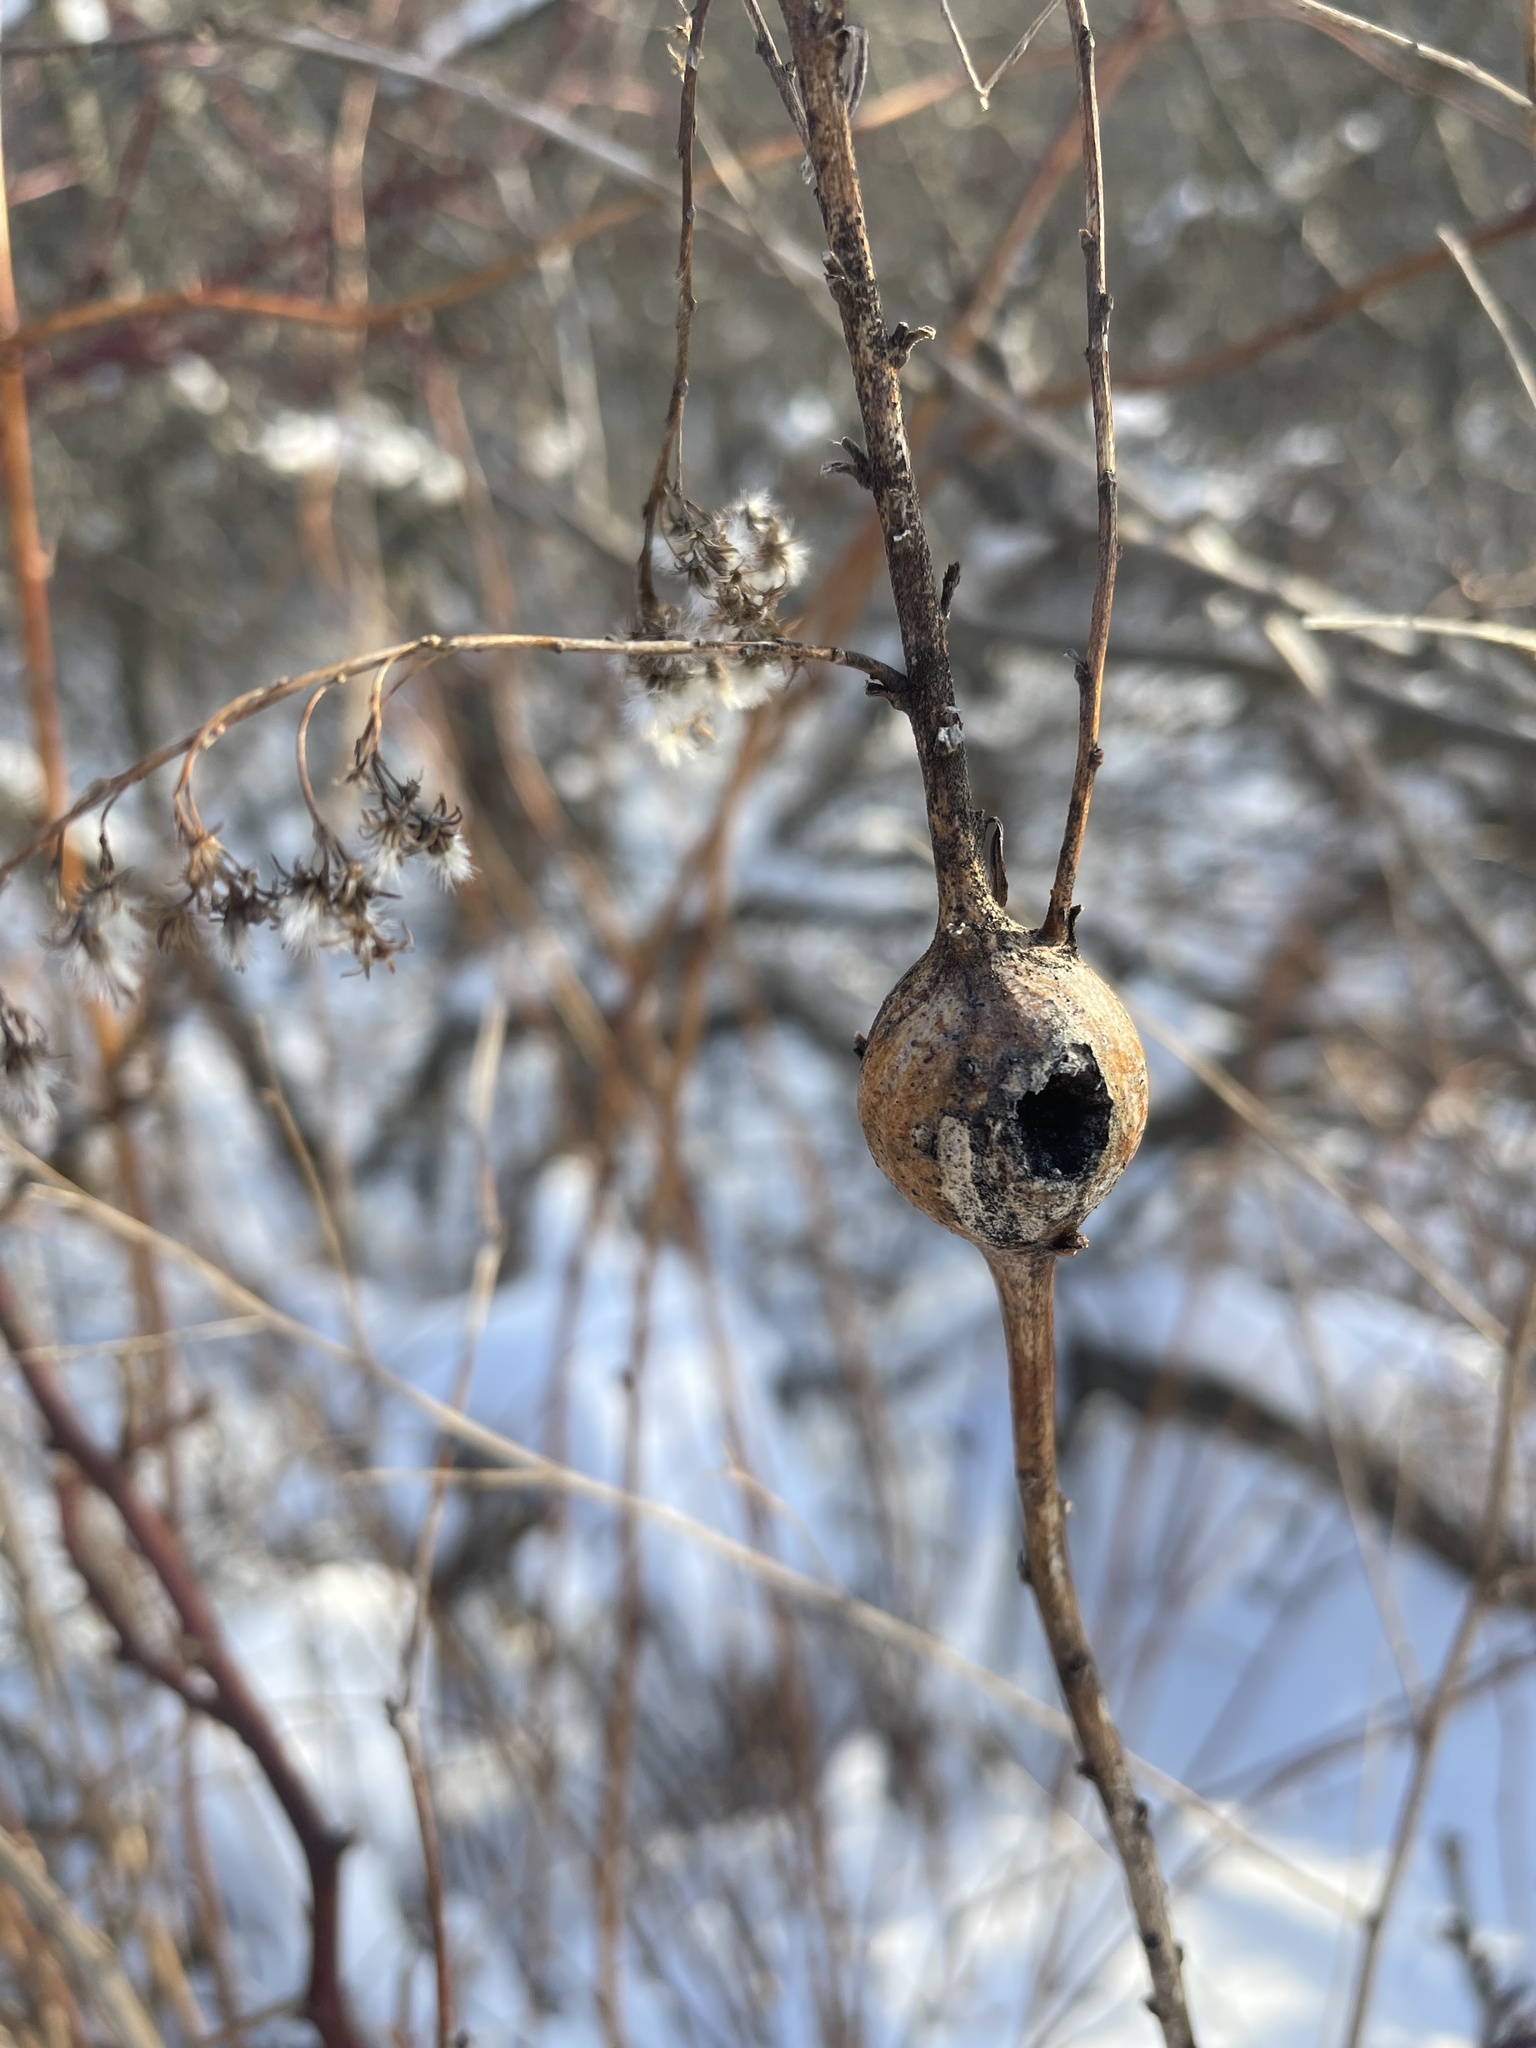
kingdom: Animalia
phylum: Arthropoda
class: Insecta
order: Diptera
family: Tephritidae
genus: Eurosta
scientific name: Eurosta solidaginis
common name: Goldenrod gall fly
